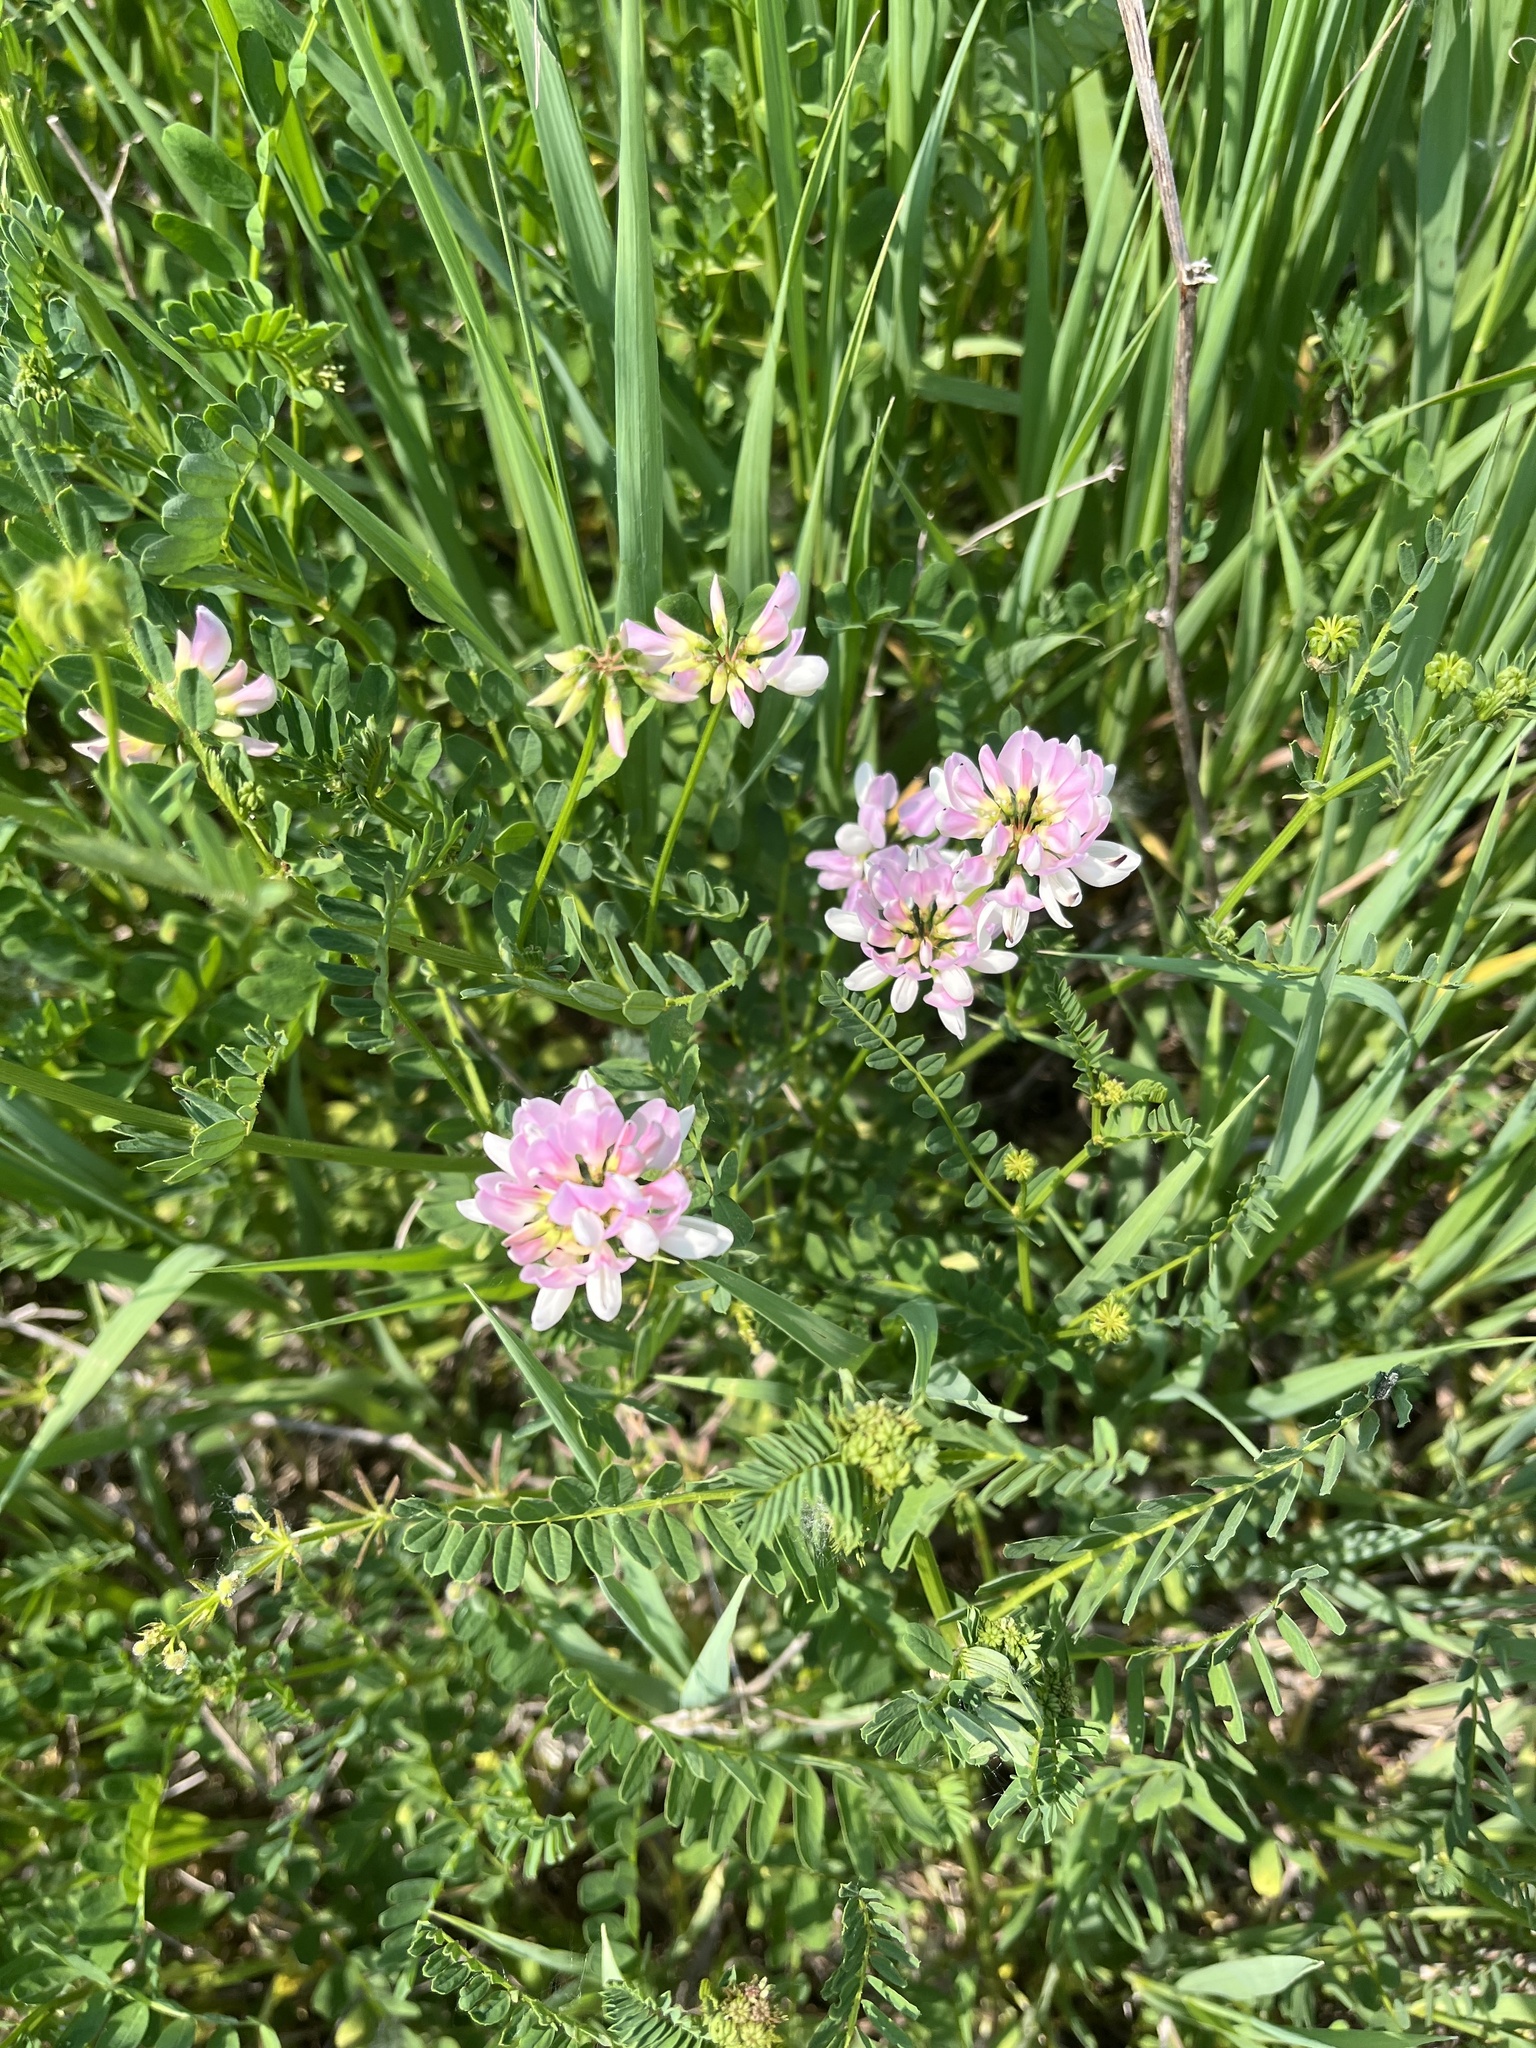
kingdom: Plantae
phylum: Tracheophyta
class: Magnoliopsida
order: Fabales
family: Fabaceae
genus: Coronilla
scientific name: Coronilla varia
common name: Crownvetch
